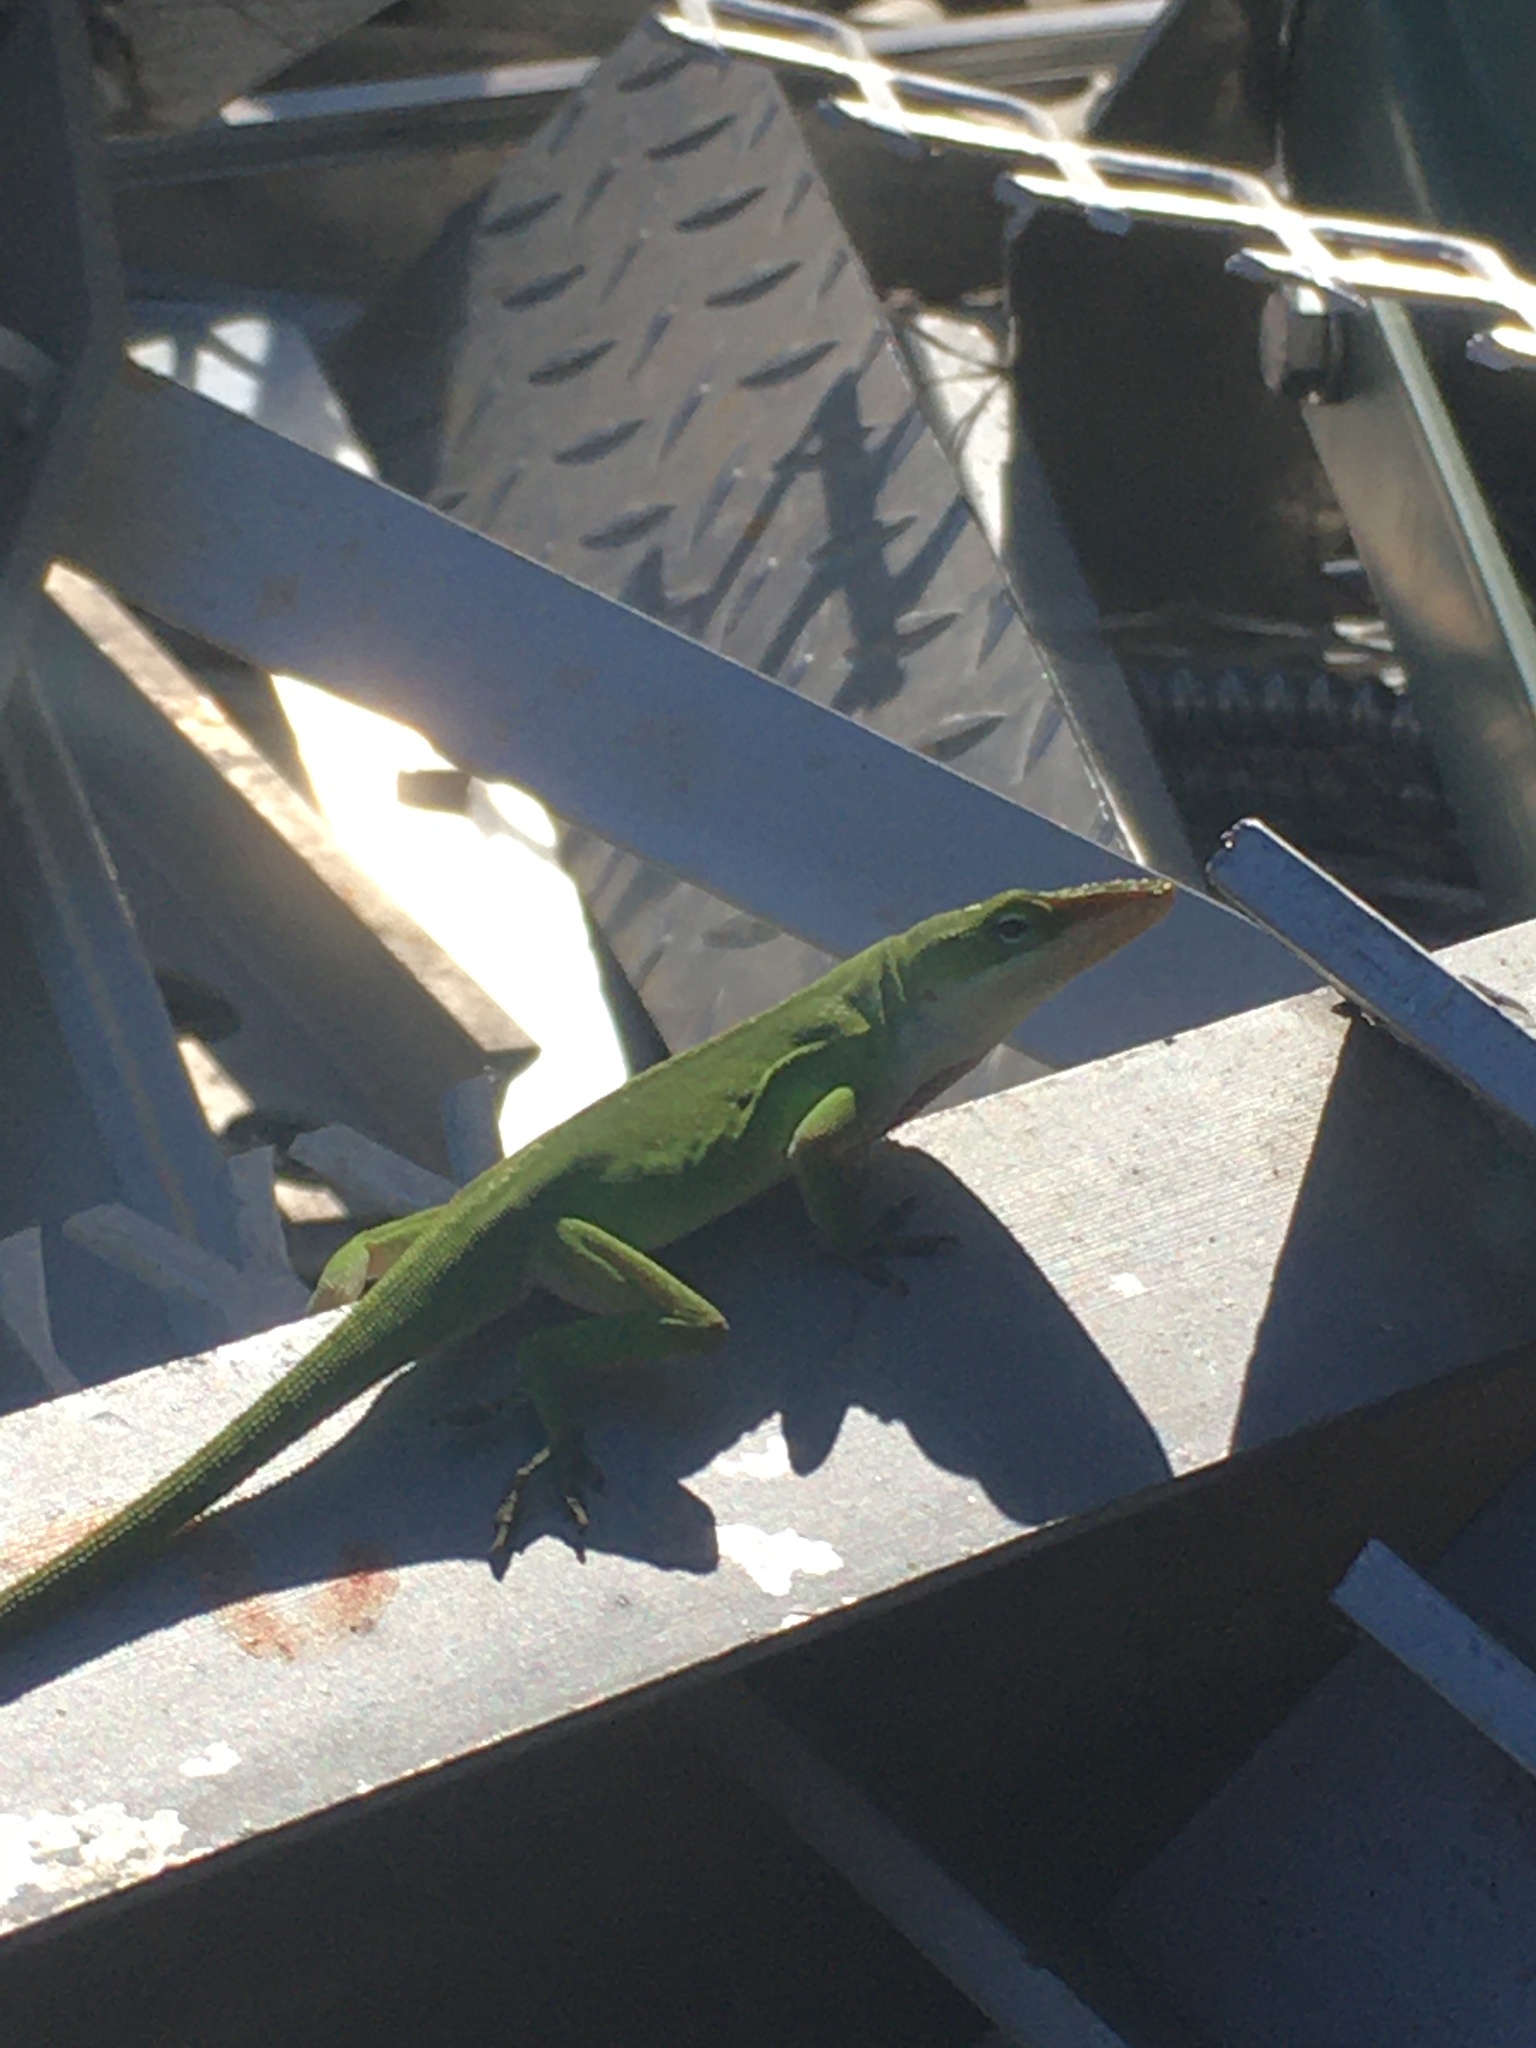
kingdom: Animalia
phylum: Chordata
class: Squamata
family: Dactyloidae
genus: Anolis
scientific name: Anolis carolinensis
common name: Green anole
